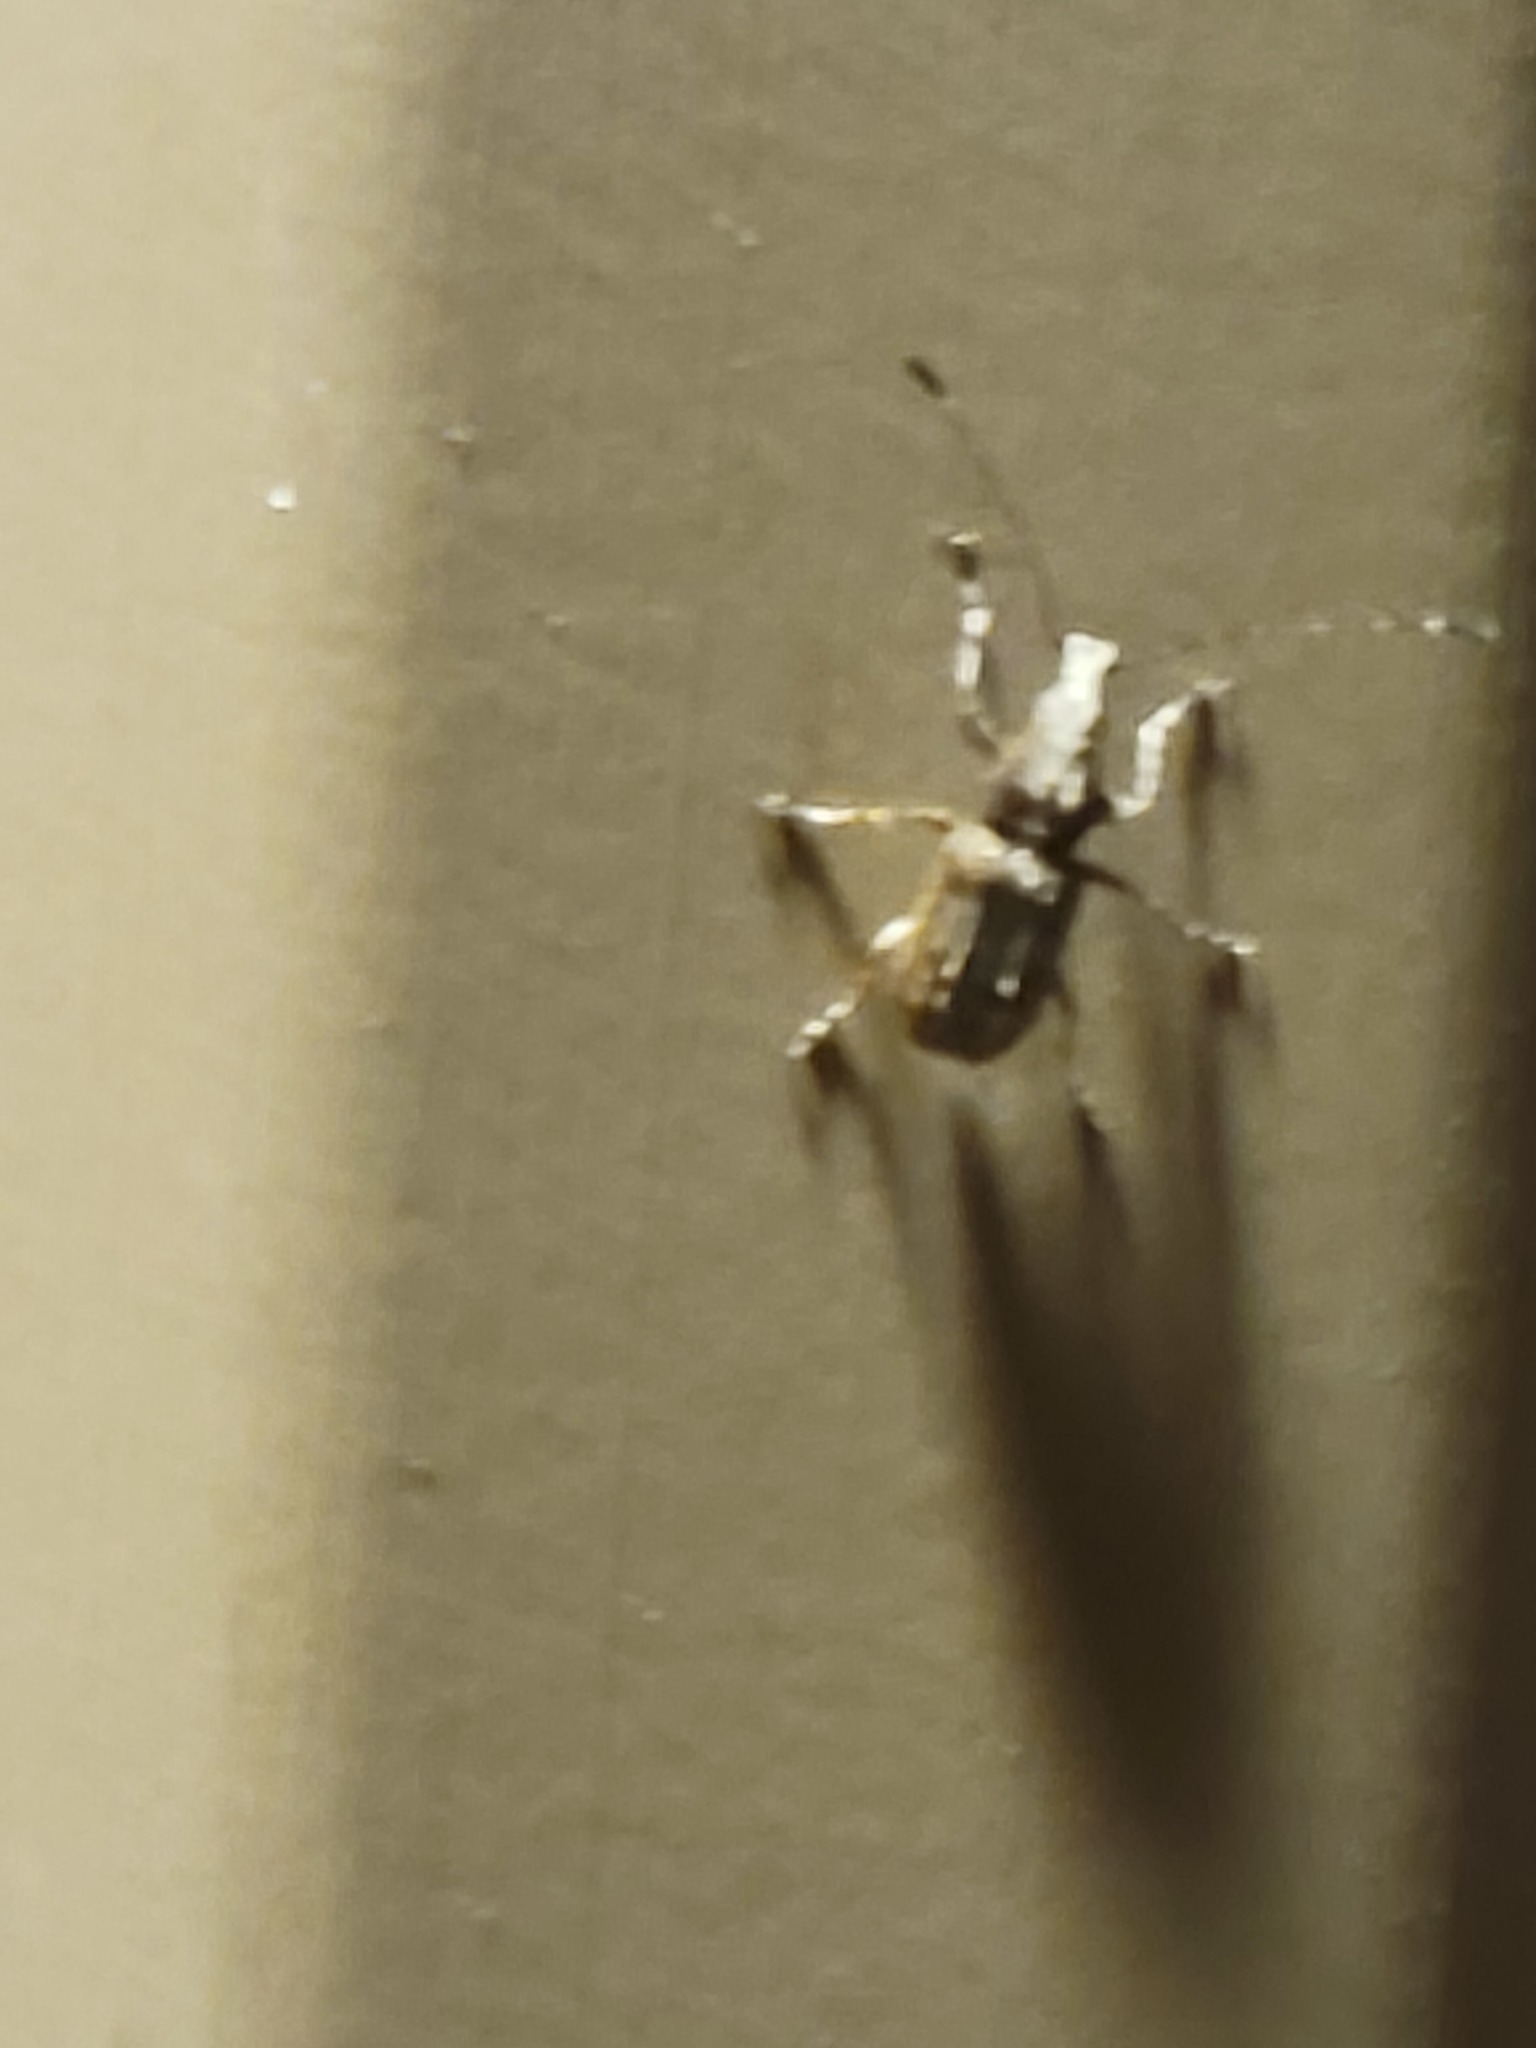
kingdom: Animalia
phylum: Arthropoda
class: Insecta
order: Coleoptera
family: Anthribidae
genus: Meconemus
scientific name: Meconemus infuscatus
